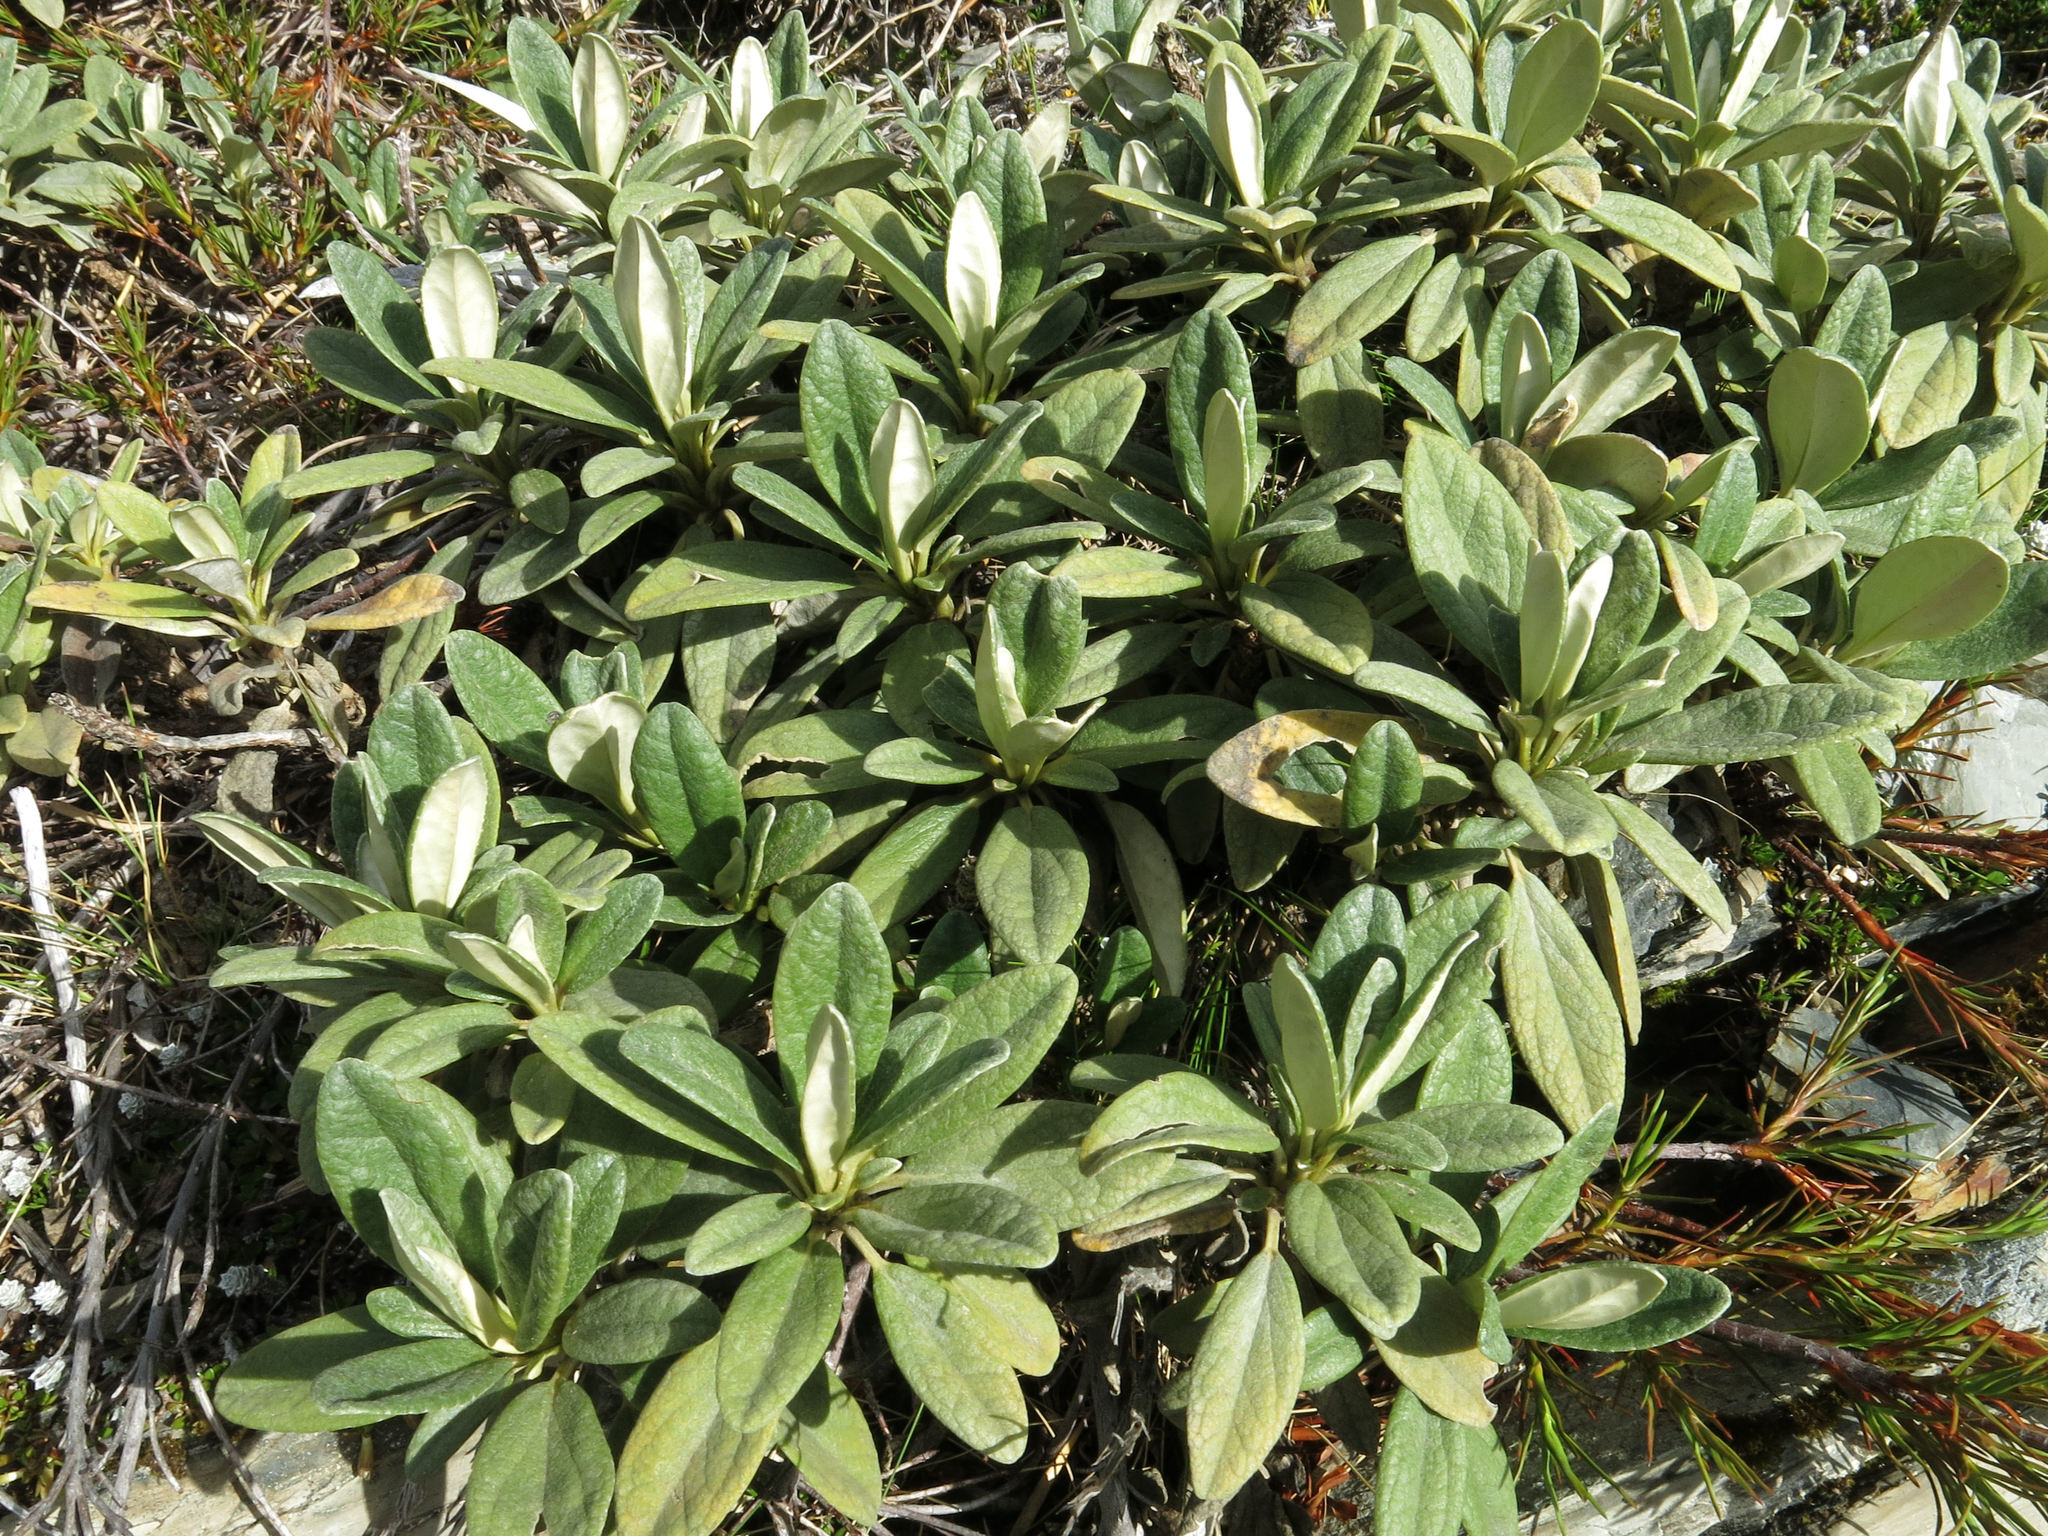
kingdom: Plantae
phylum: Tracheophyta
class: Magnoliopsida
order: Asterales
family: Asteraceae
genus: Brachyglottis
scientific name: Brachyglottis revoluta
